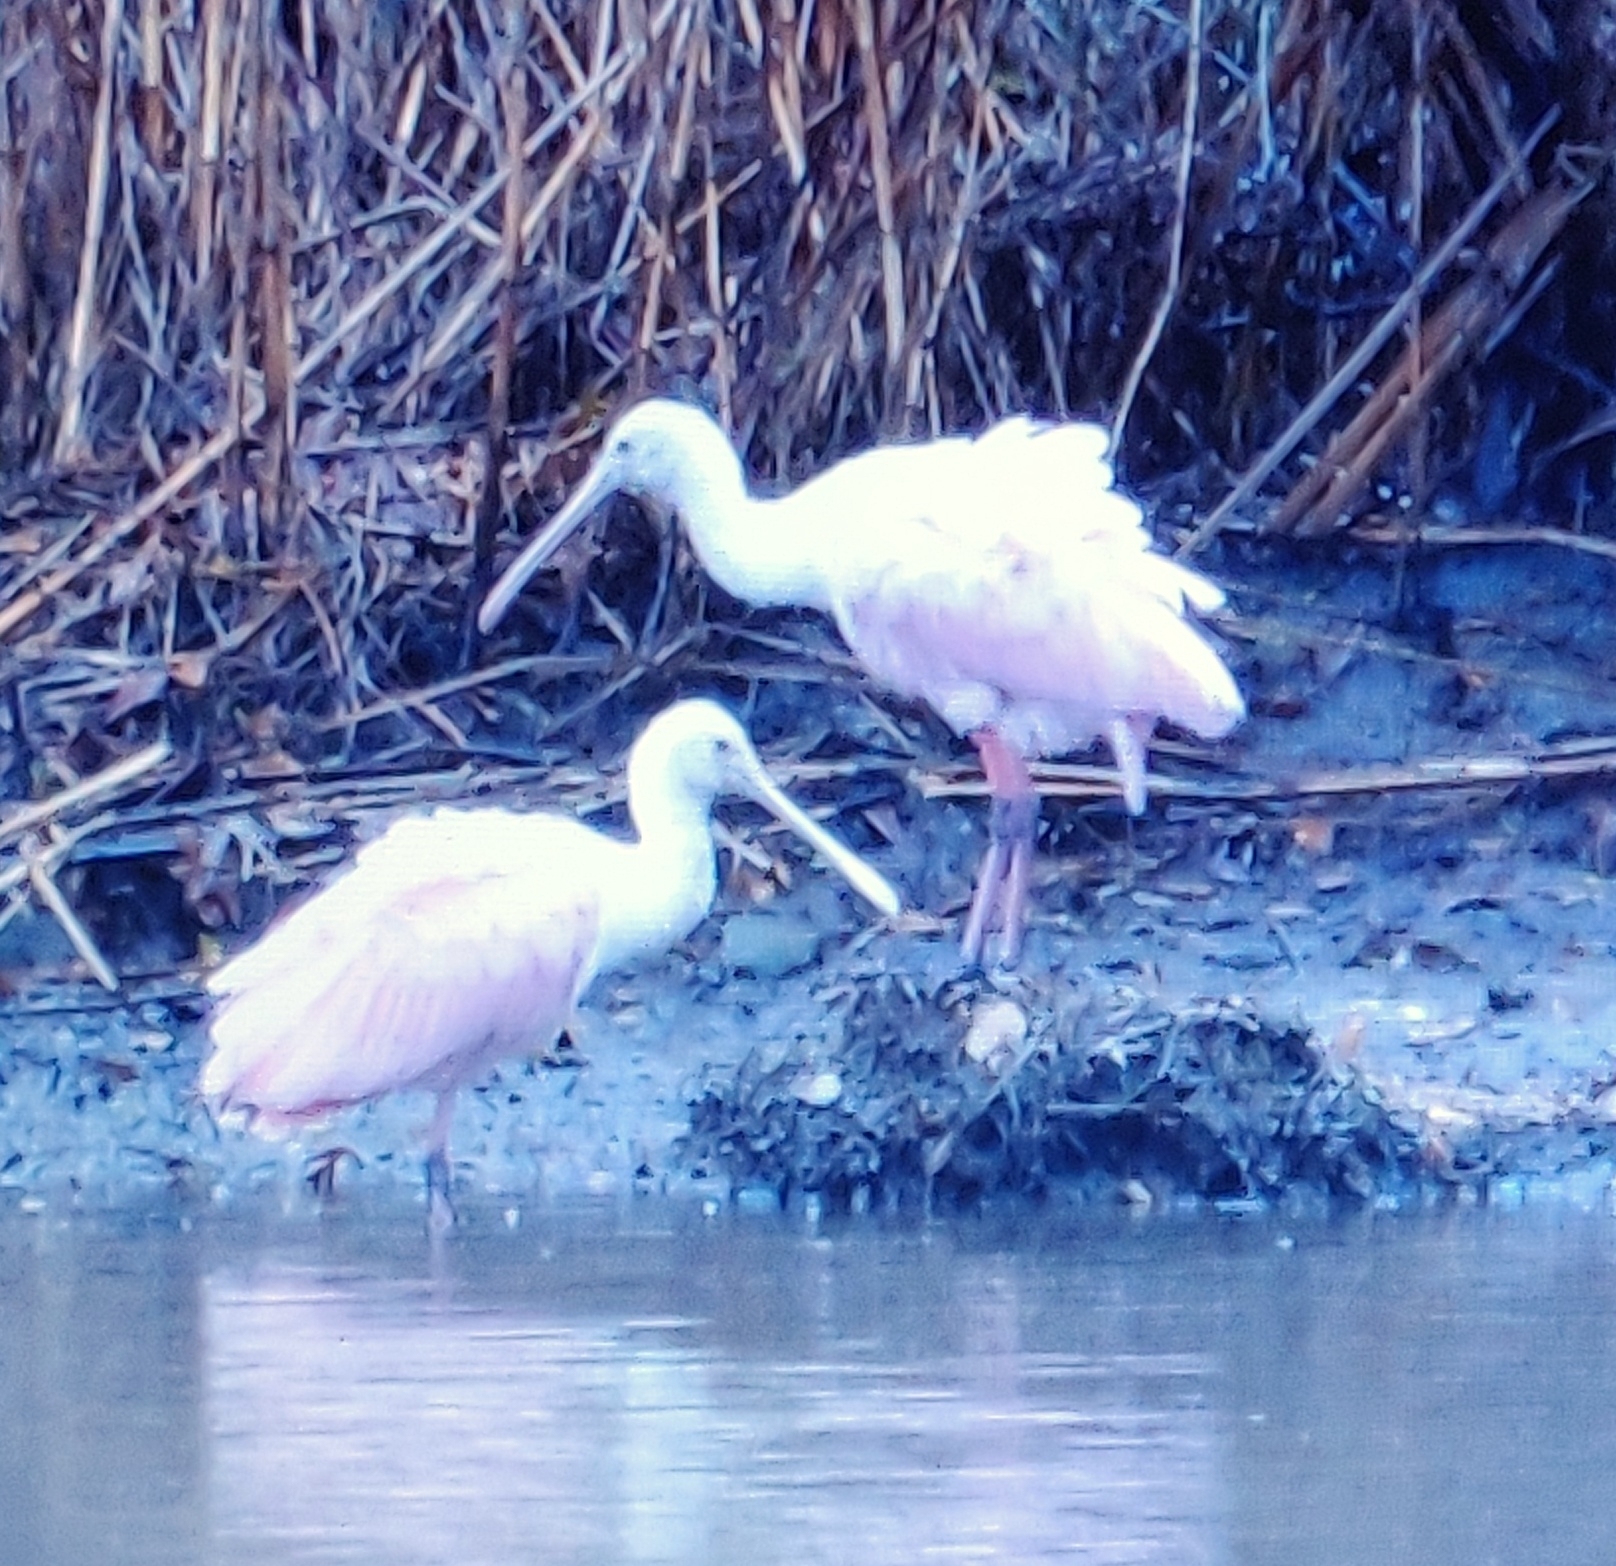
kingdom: Animalia
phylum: Chordata
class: Aves
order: Pelecaniformes
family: Threskiornithidae
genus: Platalea
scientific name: Platalea ajaja
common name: Roseate spoonbill
